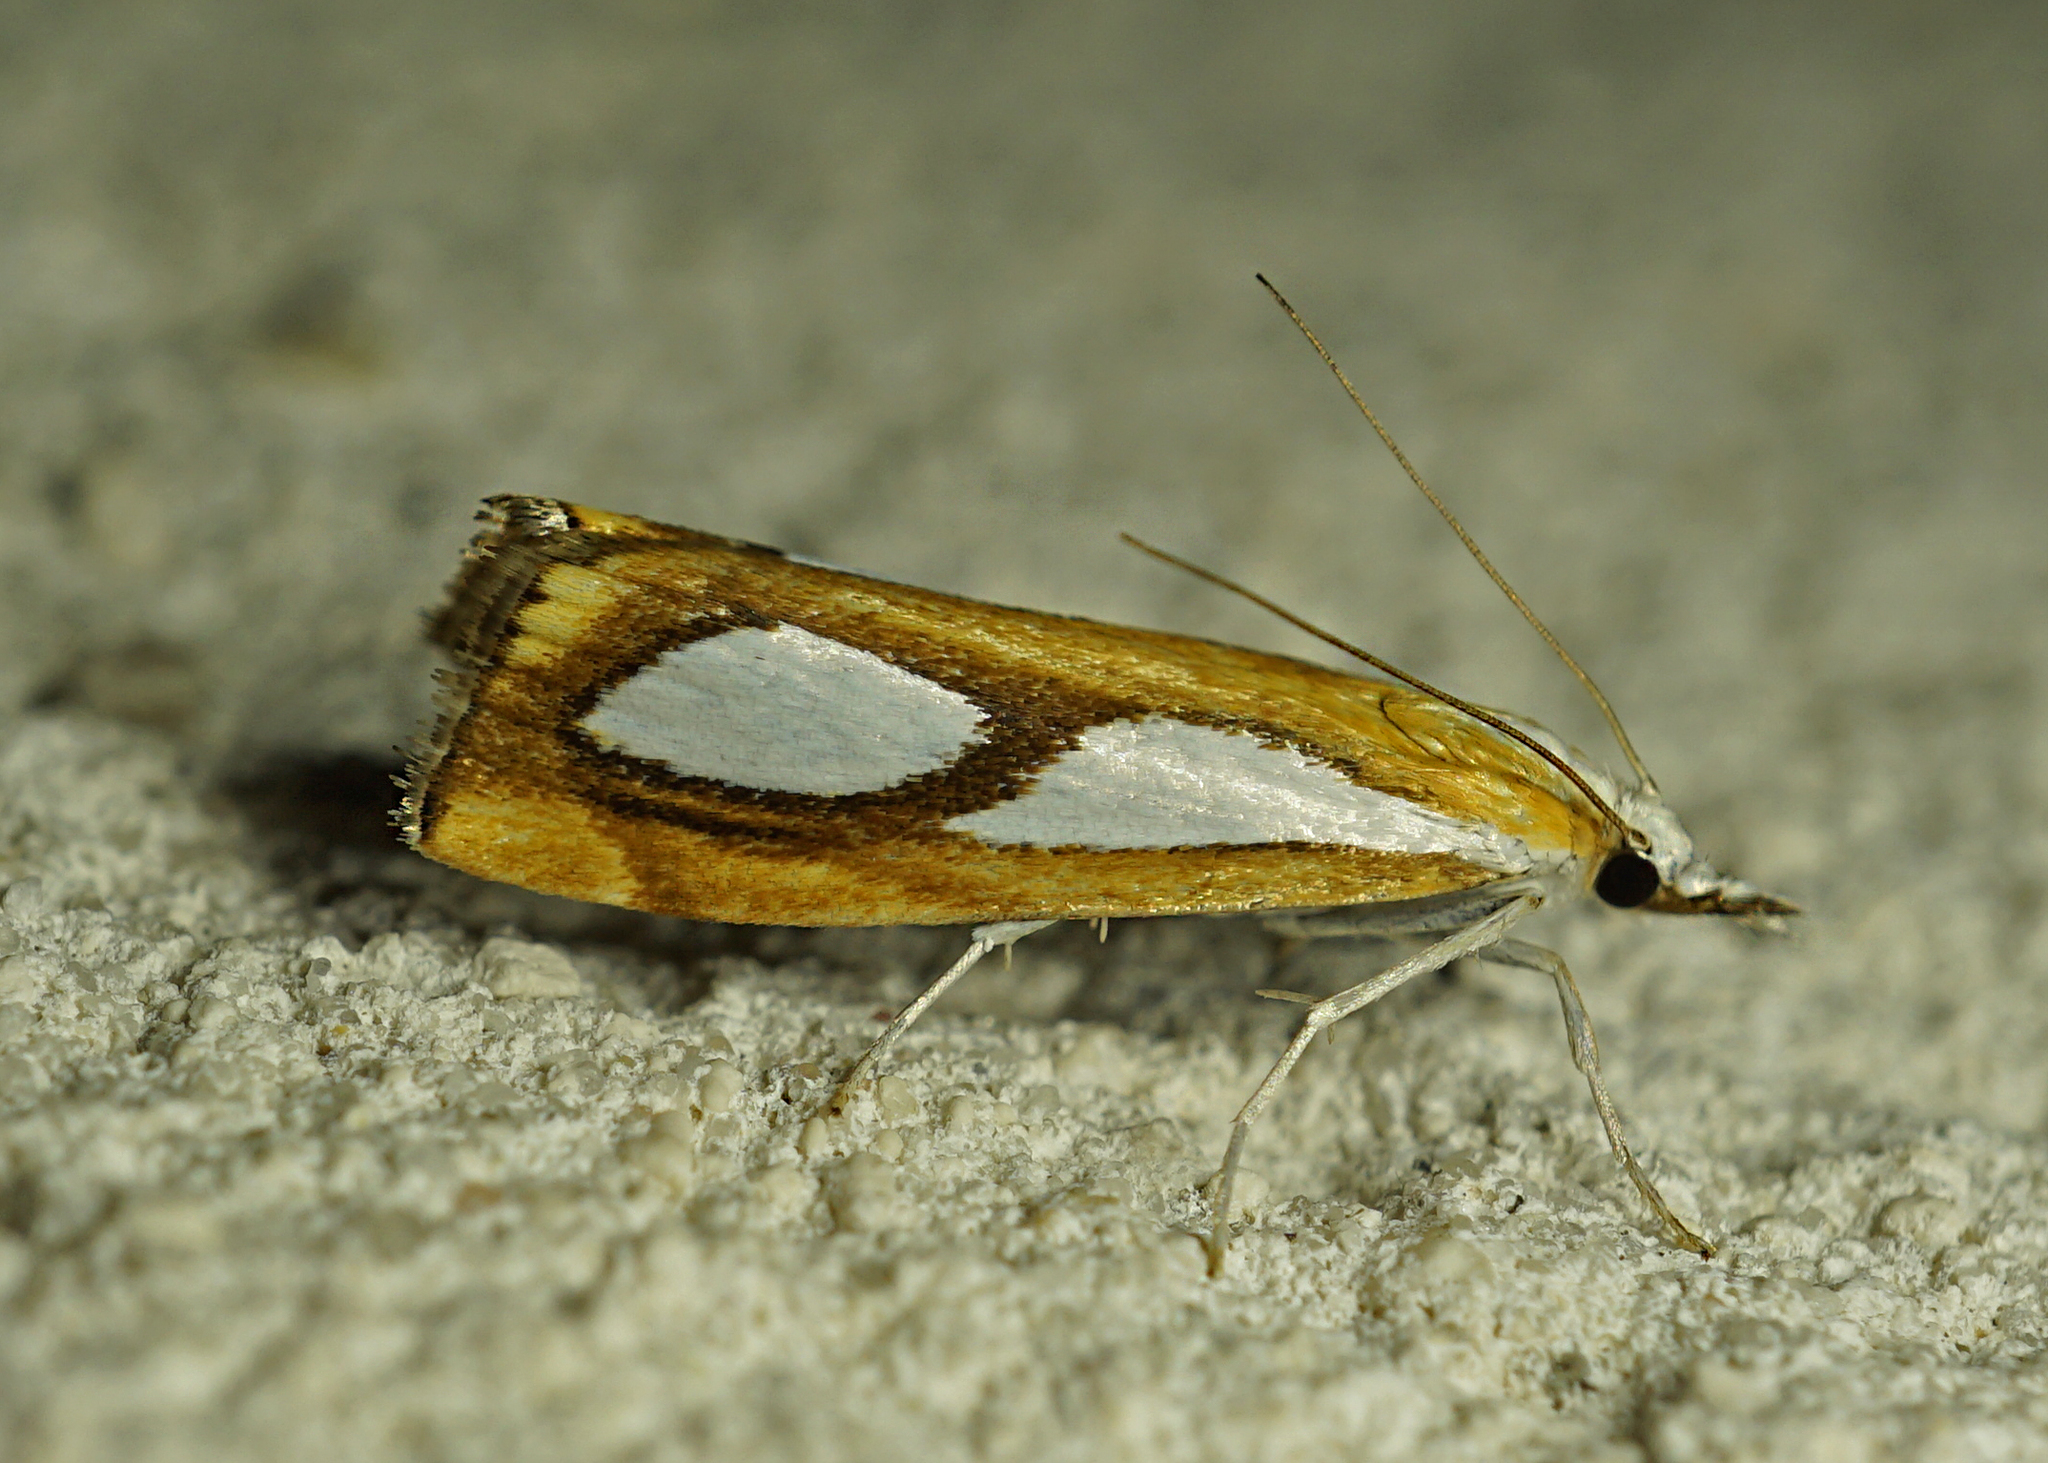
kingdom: Animalia
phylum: Arthropoda
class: Insecta
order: Lepidoptera
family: Crambidae
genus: Catoptria
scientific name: Catoptria pinella
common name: Pearl grass-veneer
